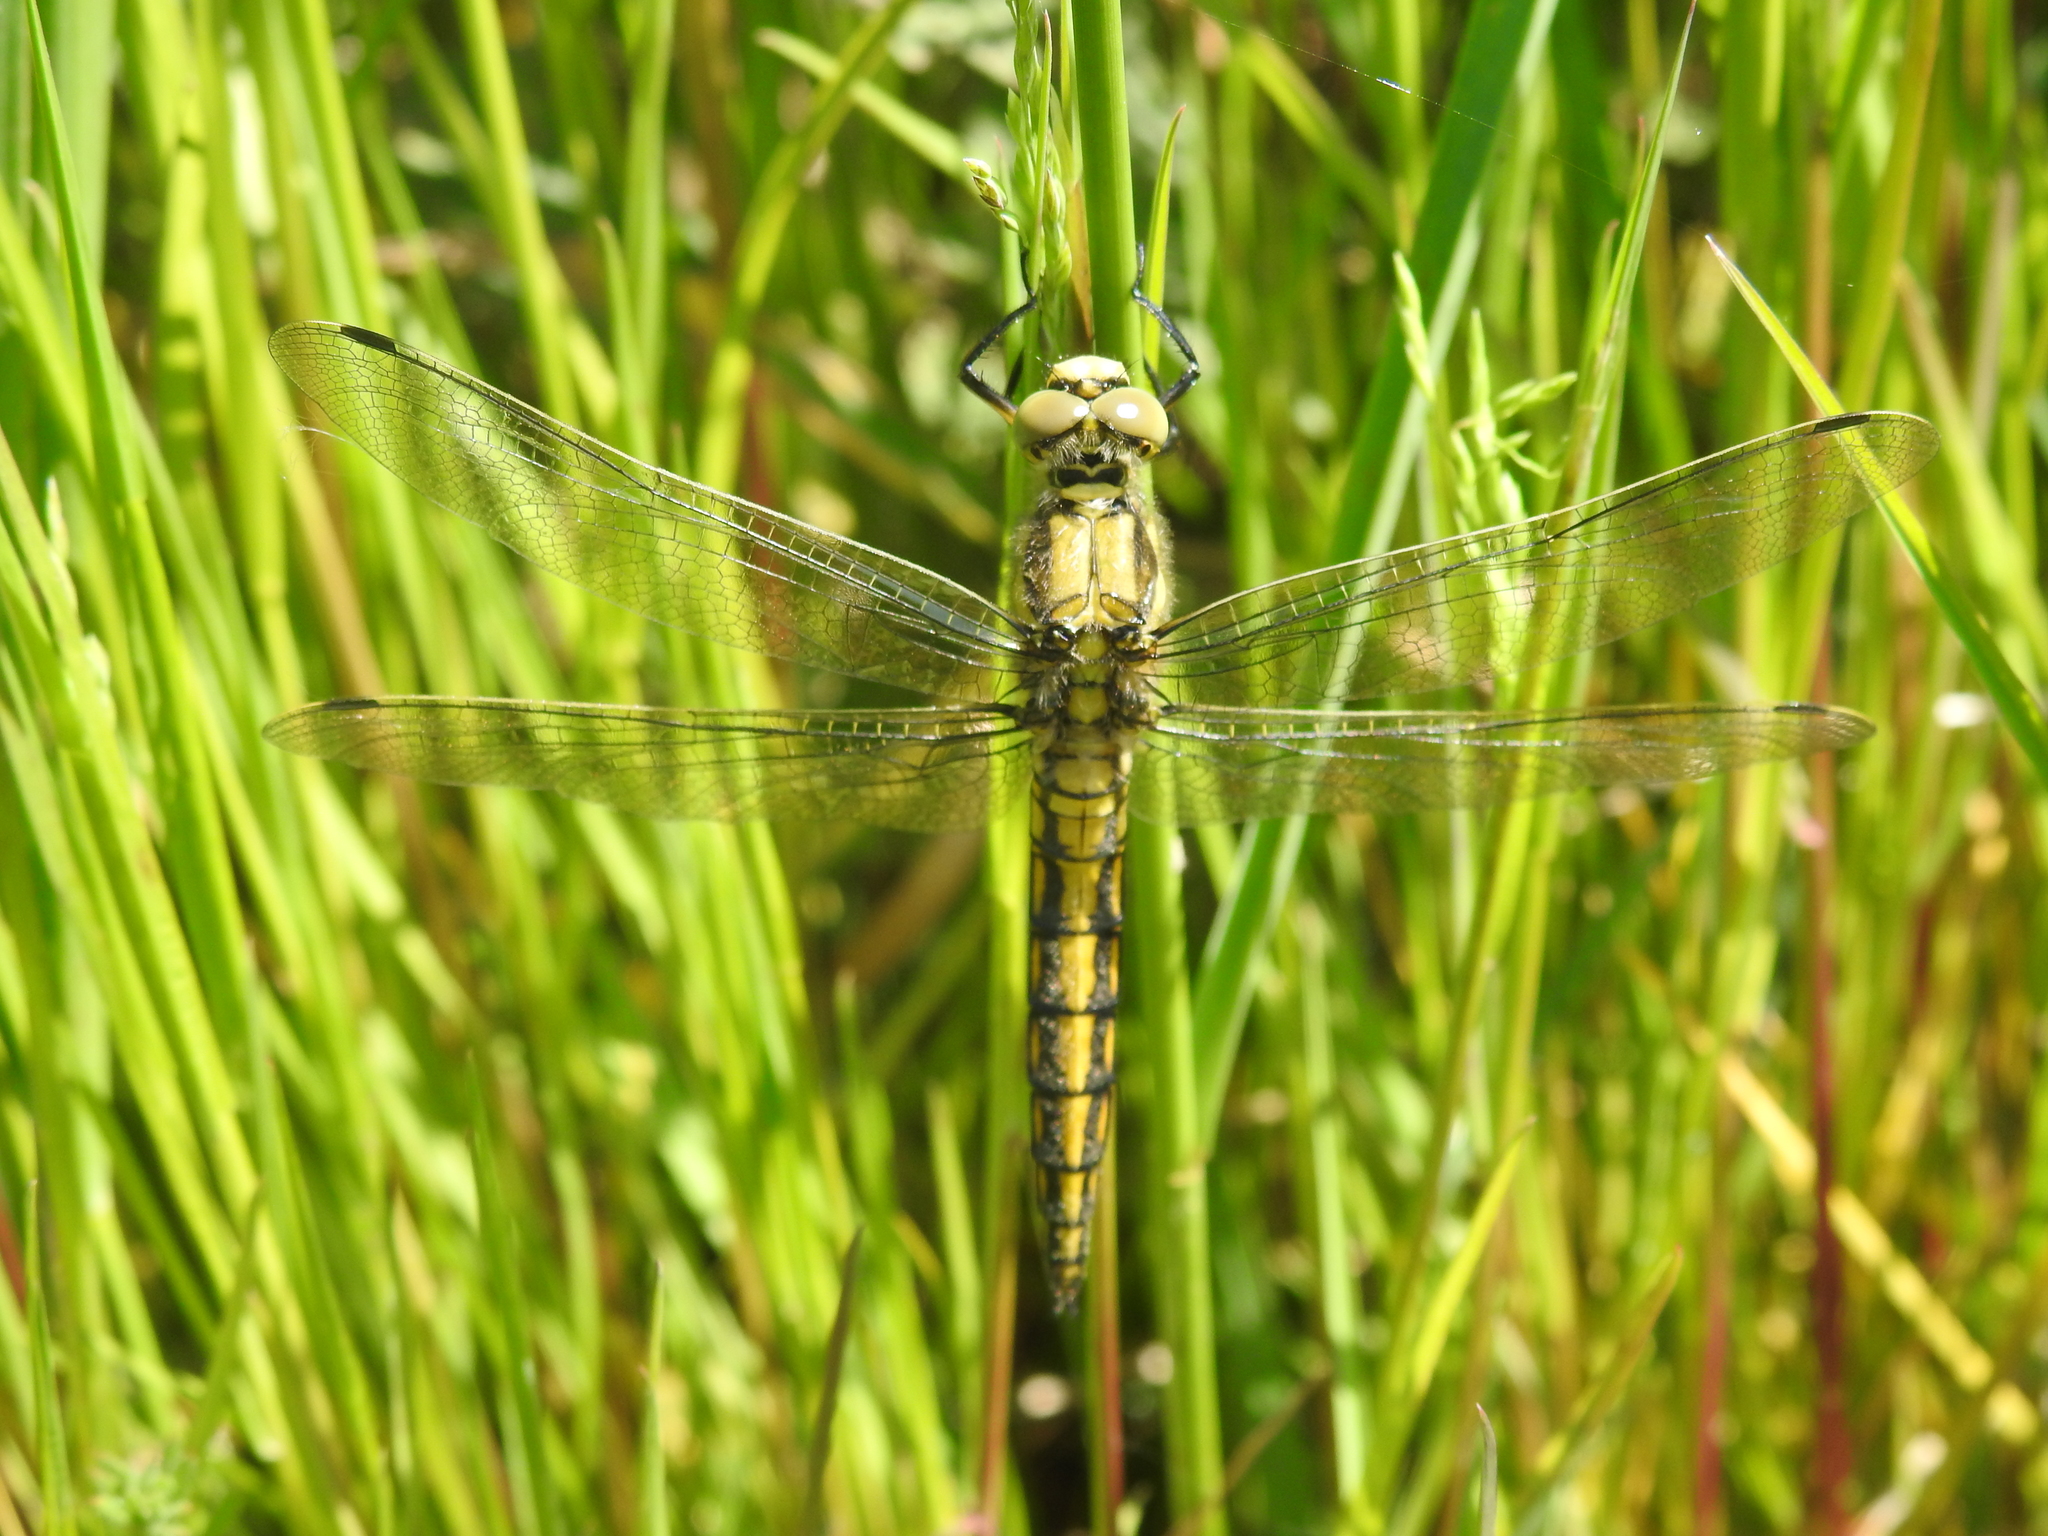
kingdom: Animalia
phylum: Arthropoda
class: Insecta
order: Odonata
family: Libellulidae
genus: Orthetrum
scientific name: Orthetrum cancellatum
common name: Black-tailed skimmer
